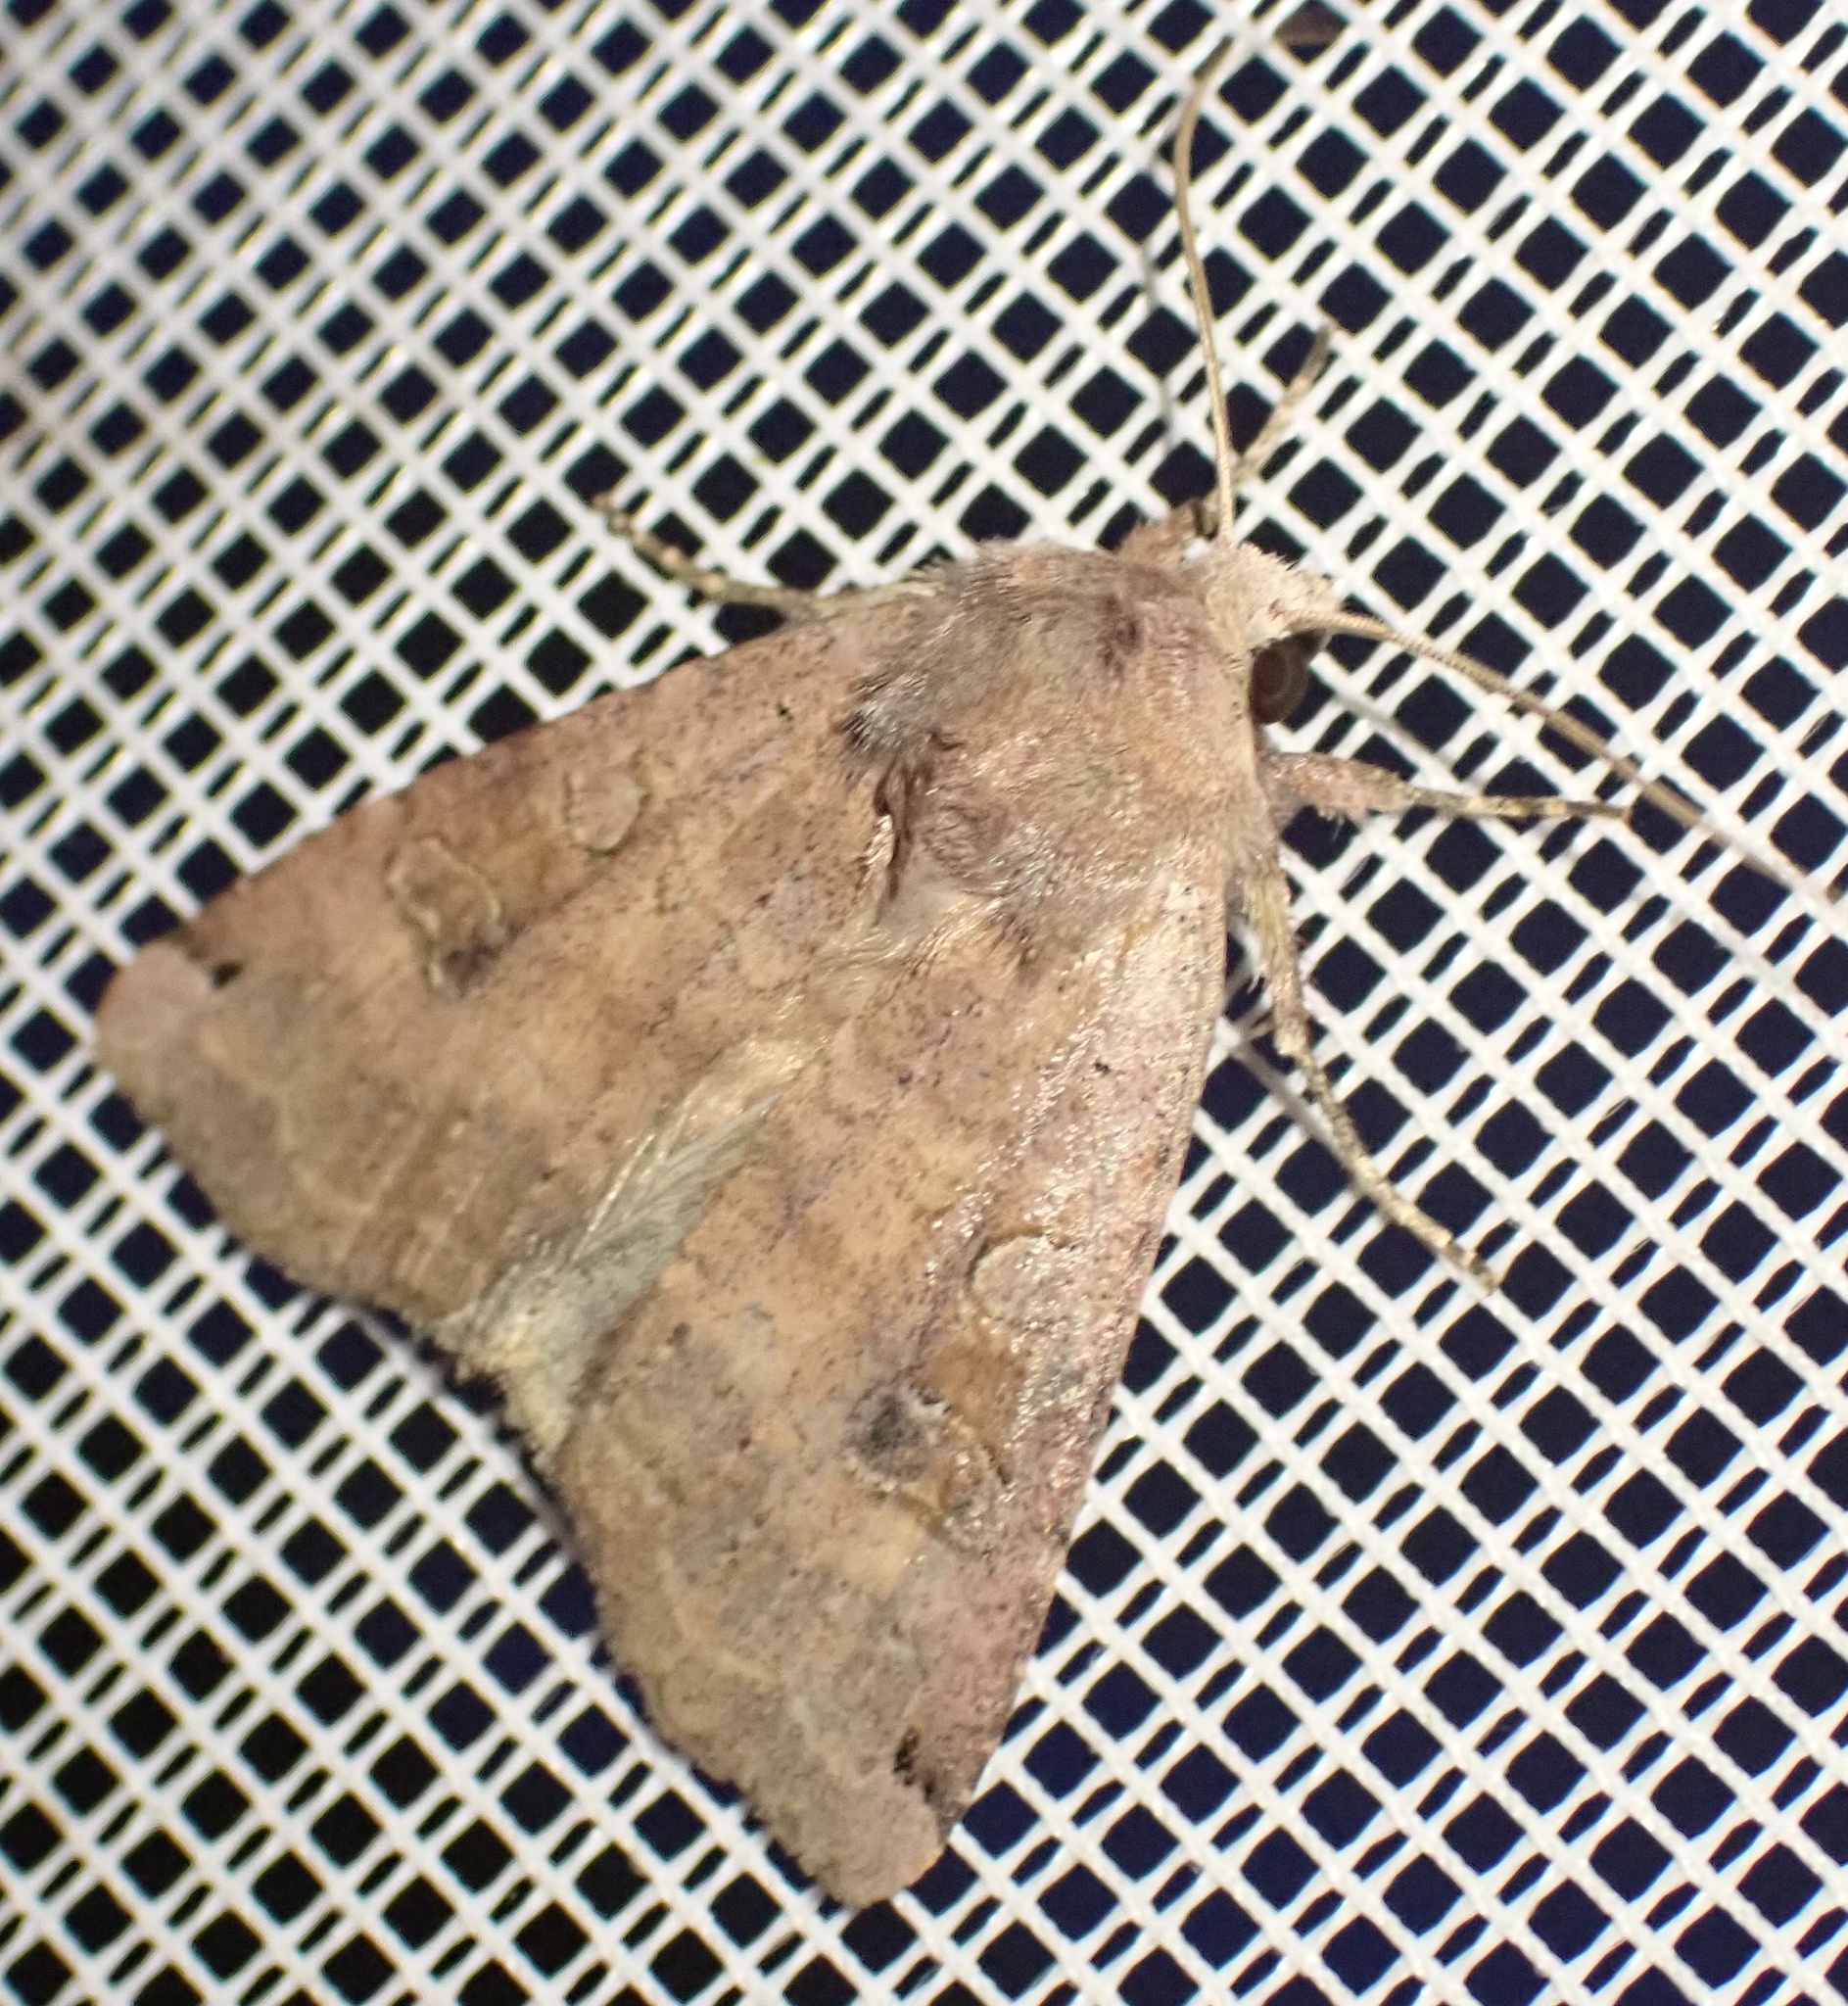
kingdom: Animalia
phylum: Arthropoda
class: Insecta
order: Lepidoptera
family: Noctuidae
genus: Xestia
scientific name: Xestia baja
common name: Dotted clay
